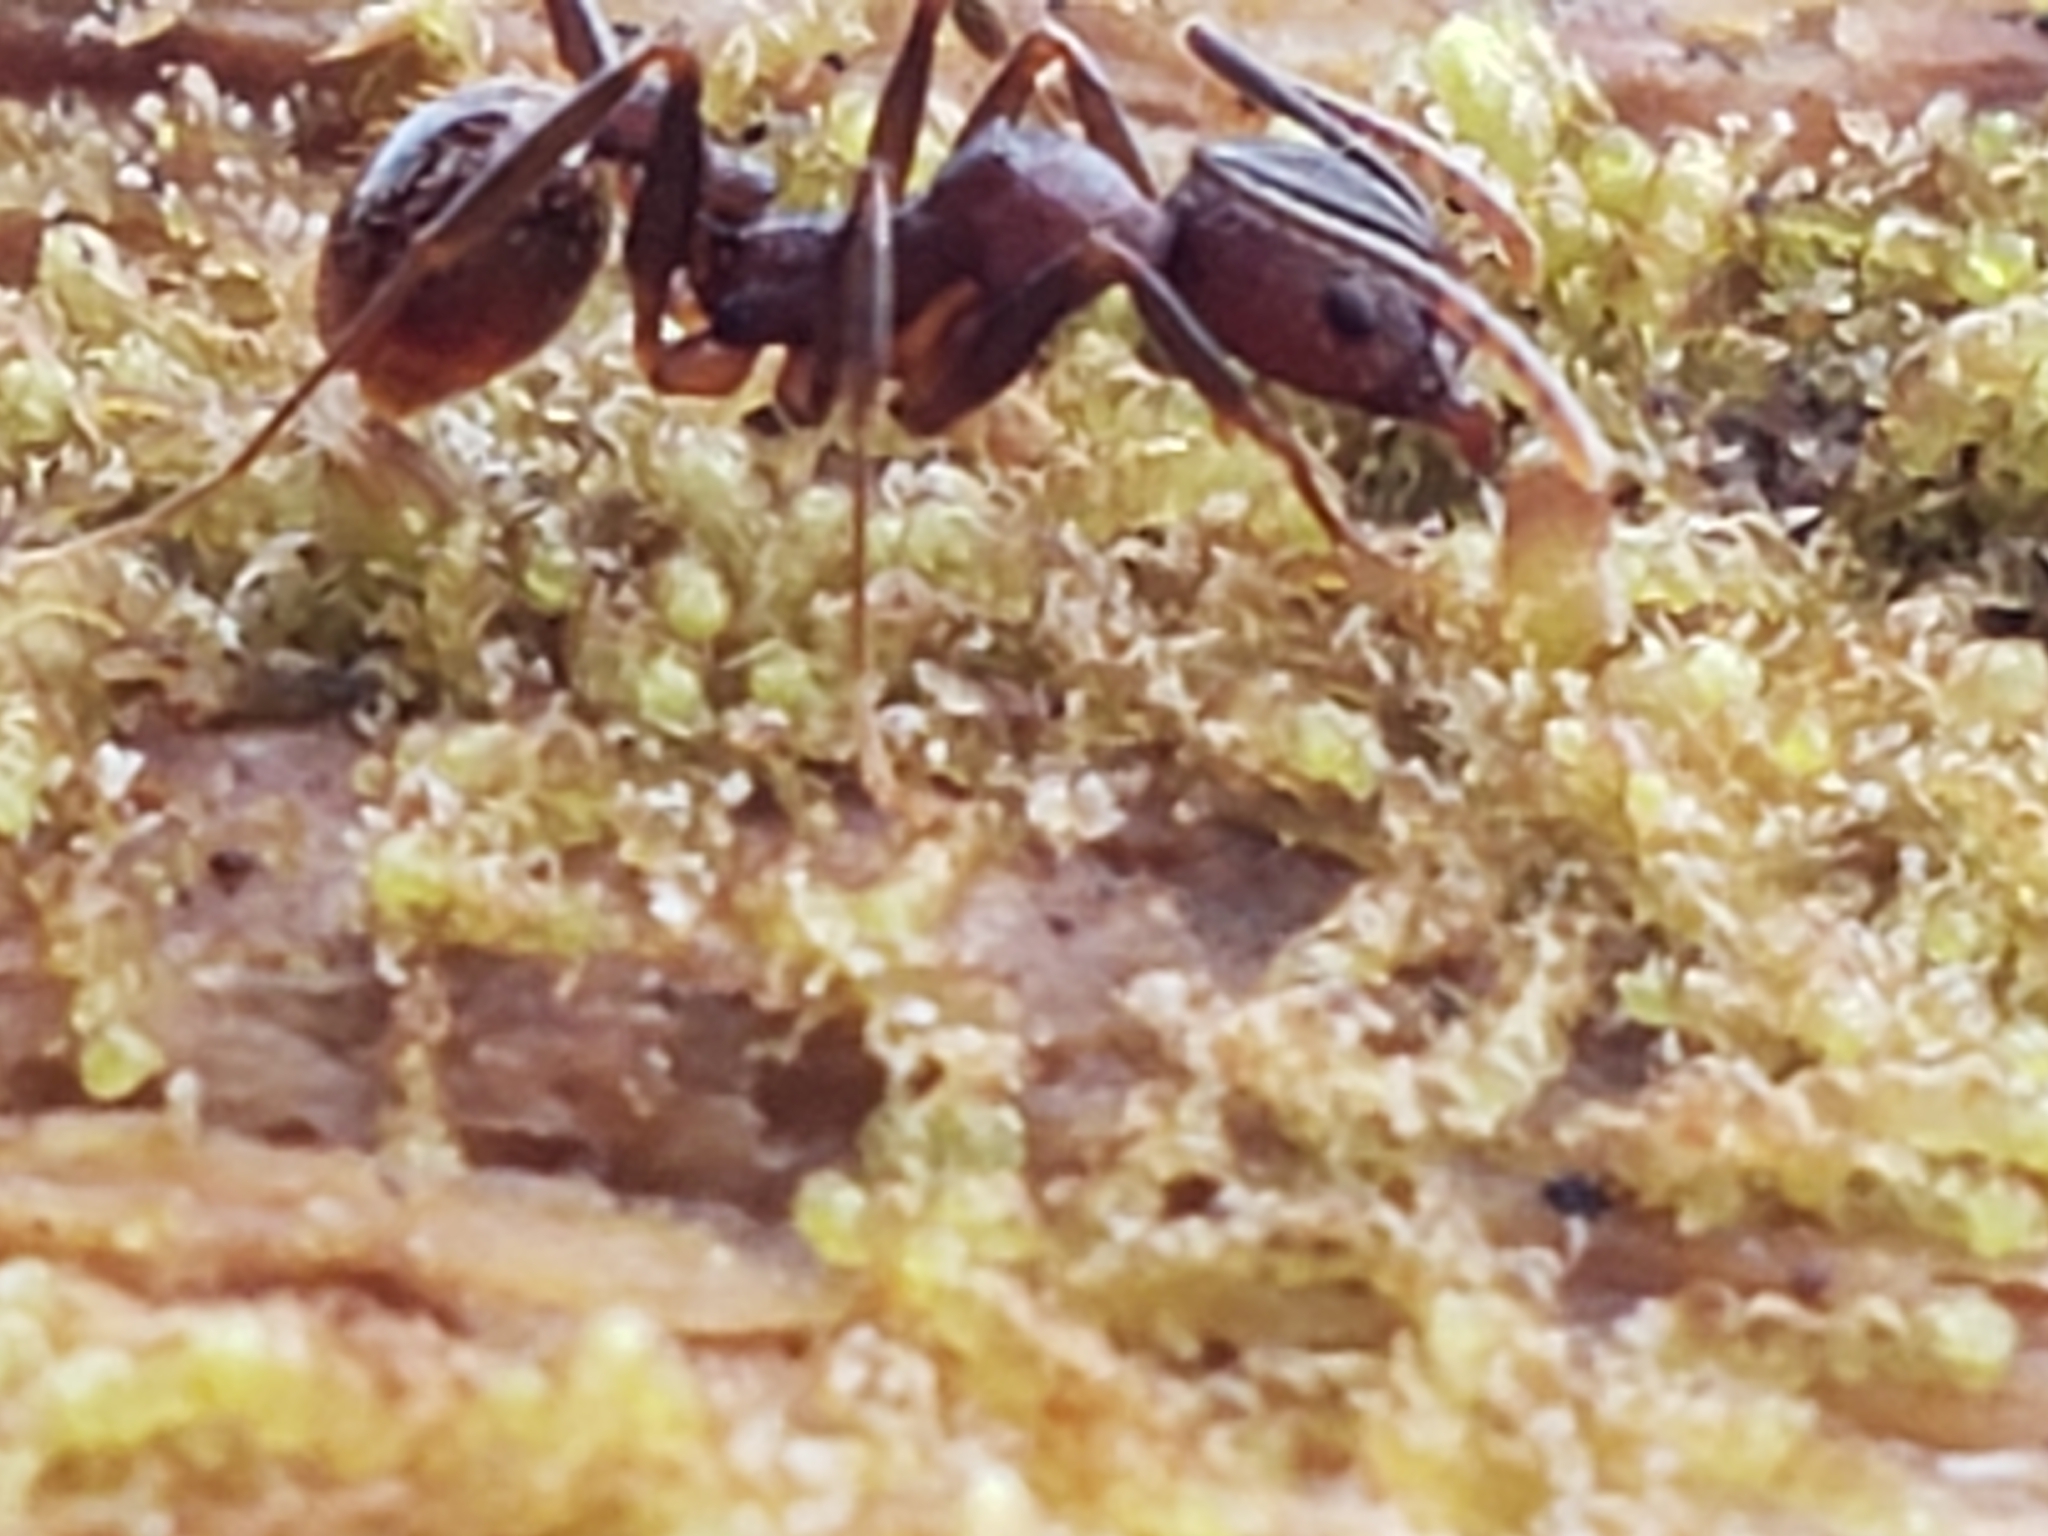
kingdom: Animalia
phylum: Arthropoda
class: Insecta
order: Hymenoptera
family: Formicidae
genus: Aphaenogaster
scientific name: Aphaenogaster fulva
